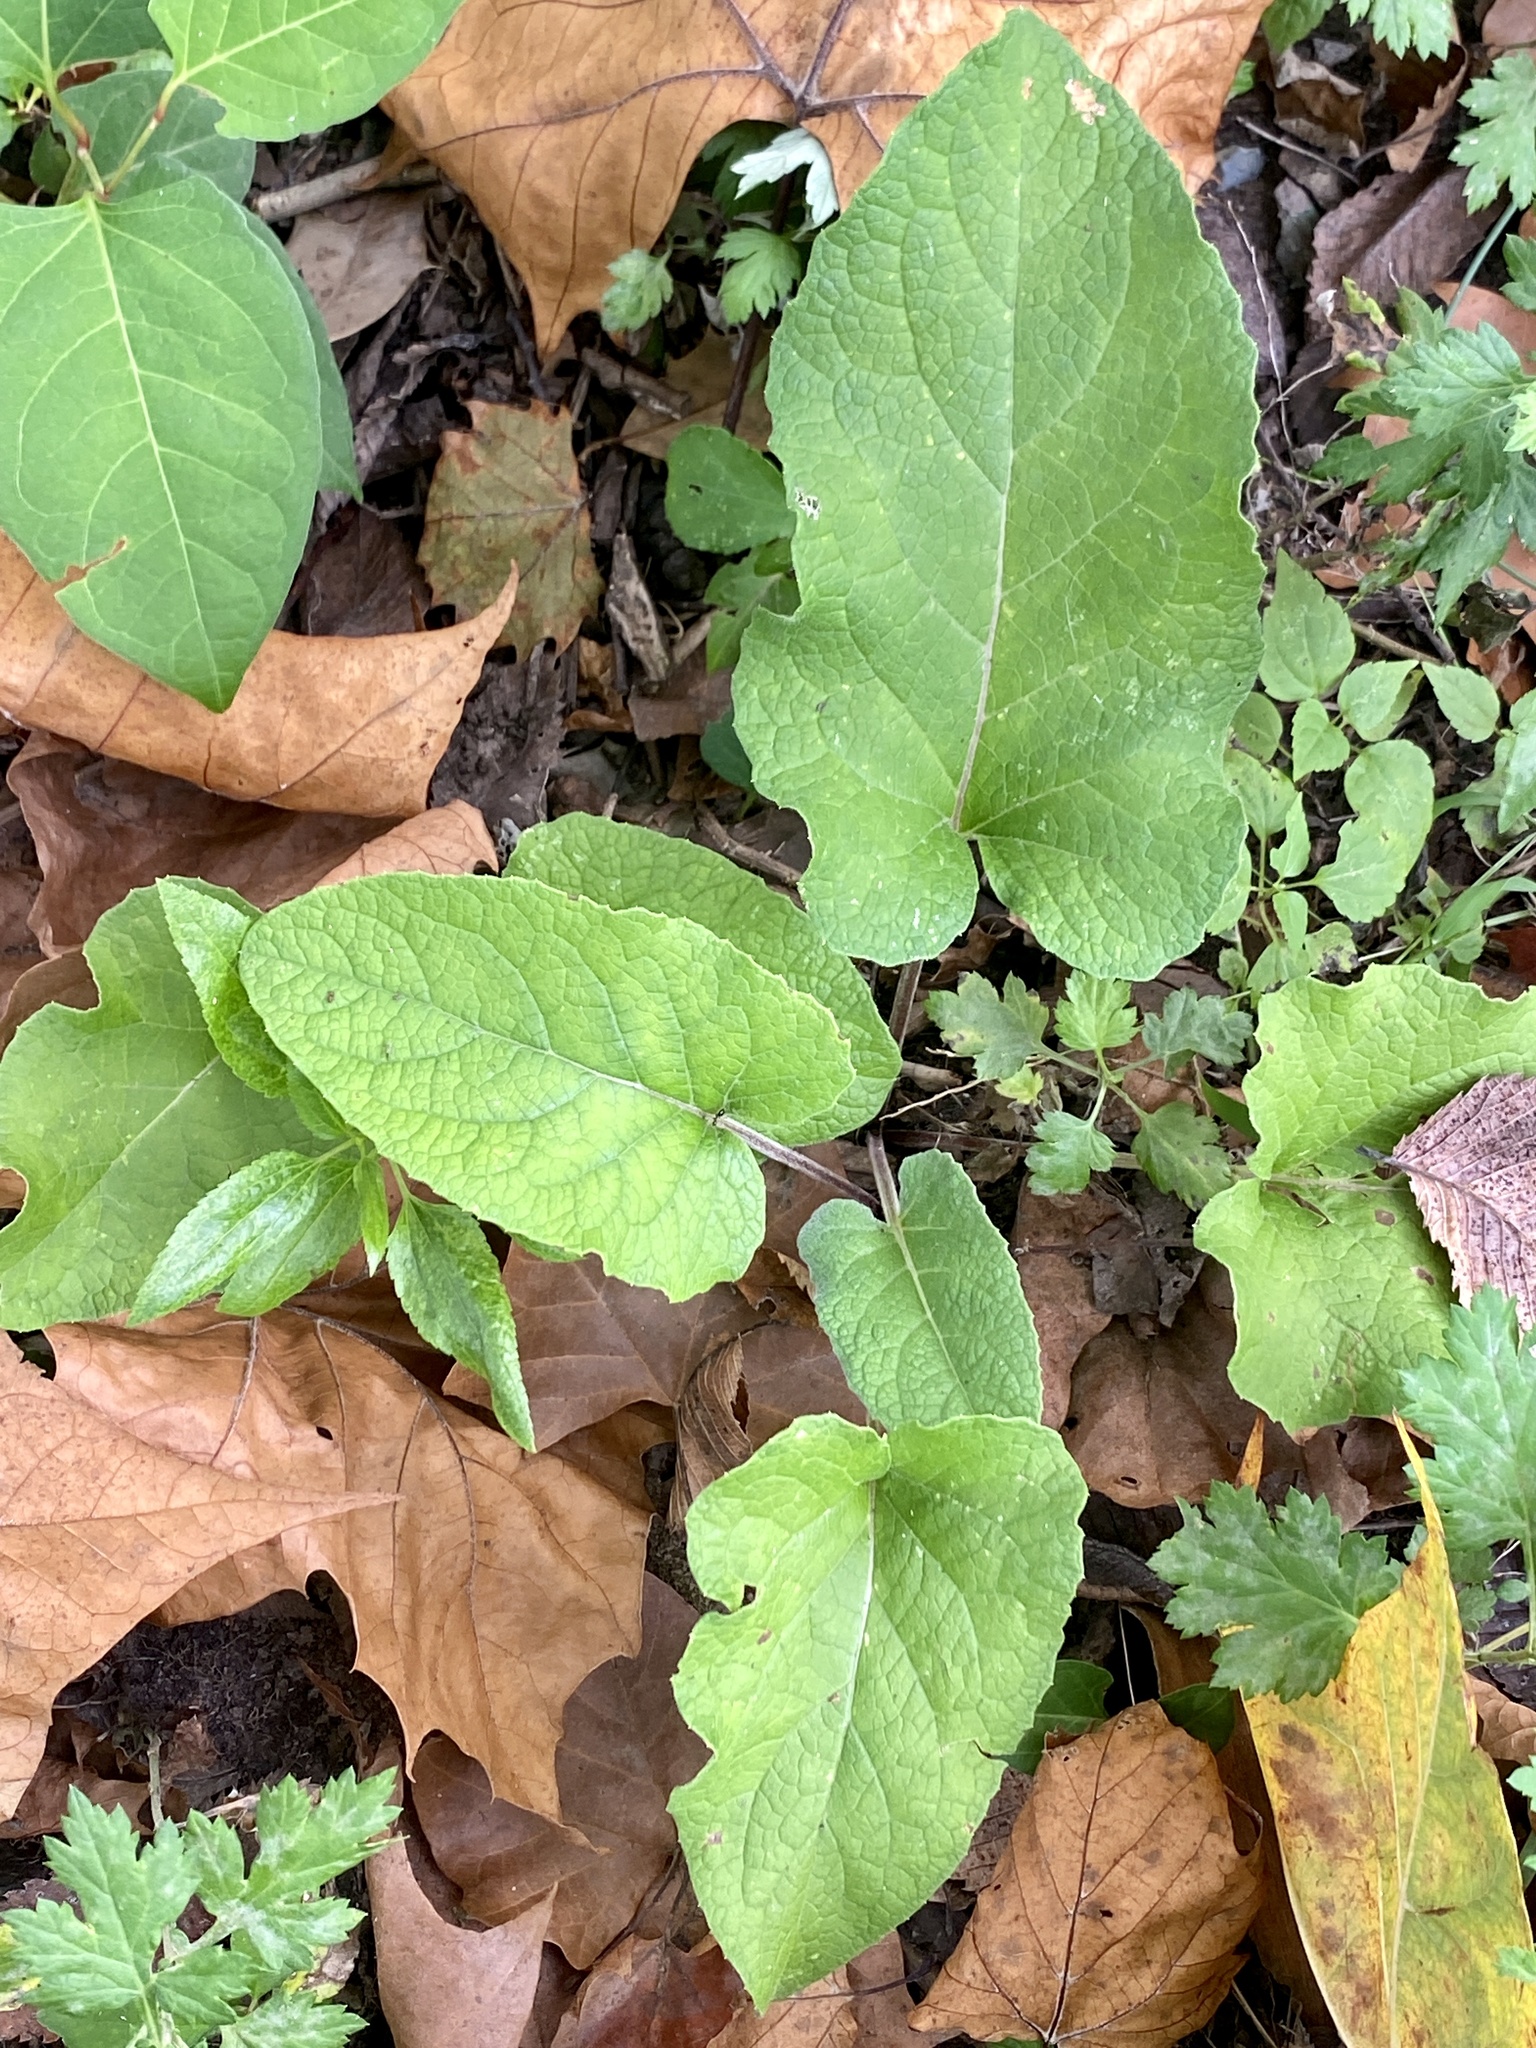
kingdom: Plantae
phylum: Tracheophyta
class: Magnoliopsida
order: Asterales
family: Asteraceae
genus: Arctium
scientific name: Arctium
